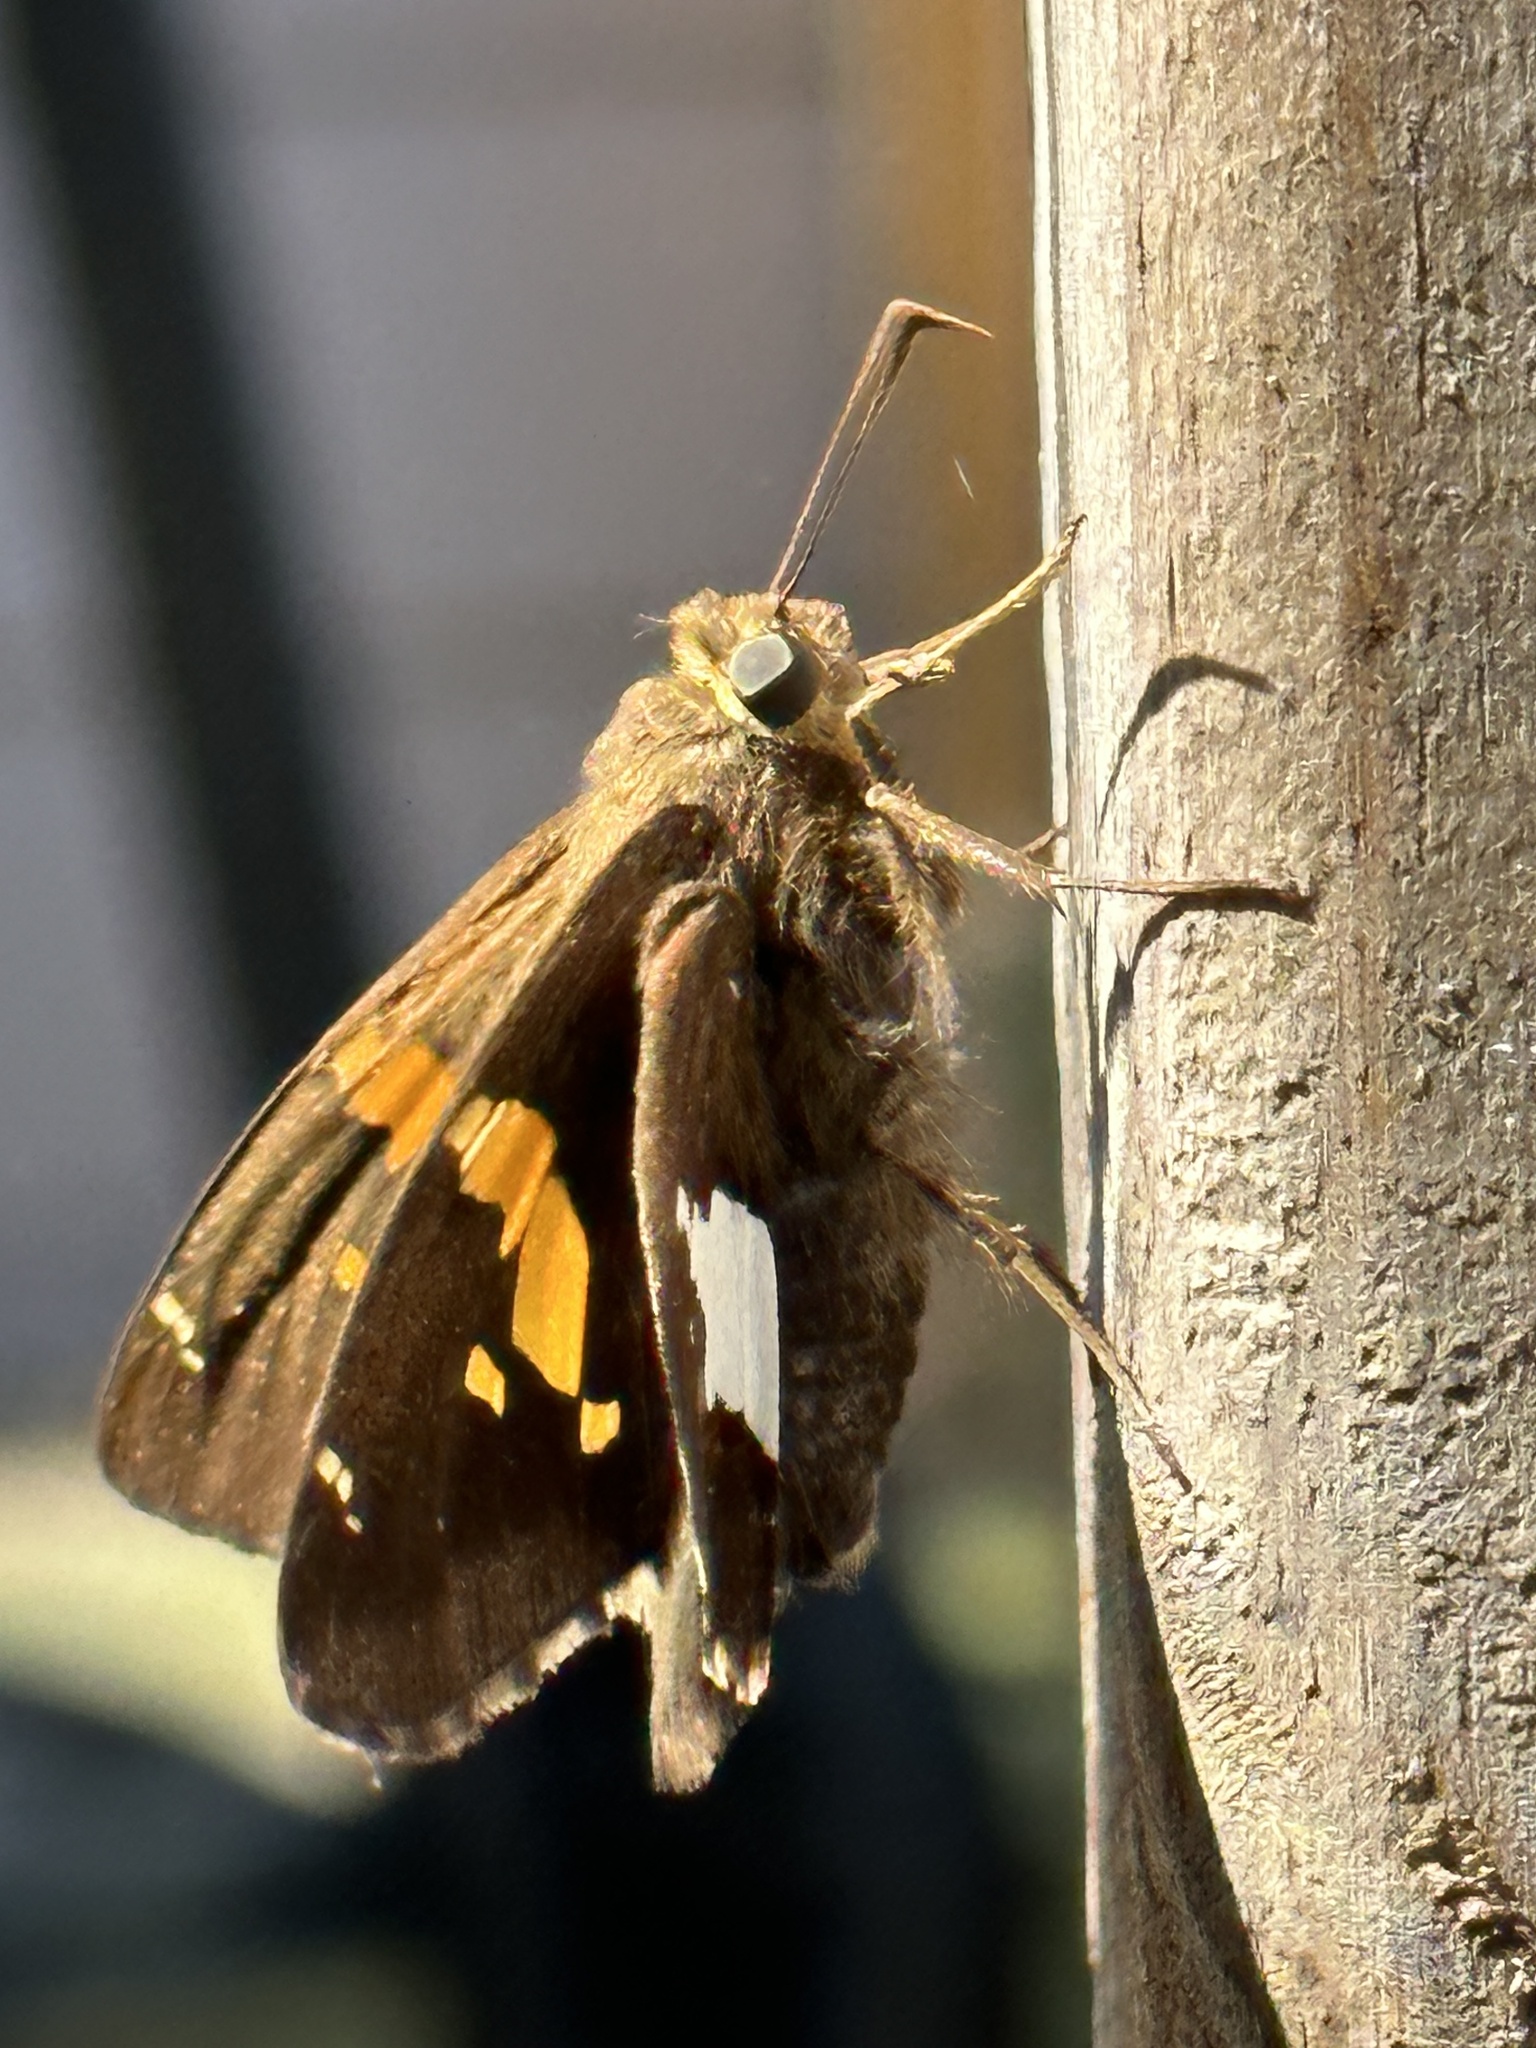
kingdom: Animalia
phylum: Arthropoda
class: Insecta
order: Lepidoptera
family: Hesperiidae
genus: Epargyreus
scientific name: Epargyreus clarus
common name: Silver-spotted skipper
